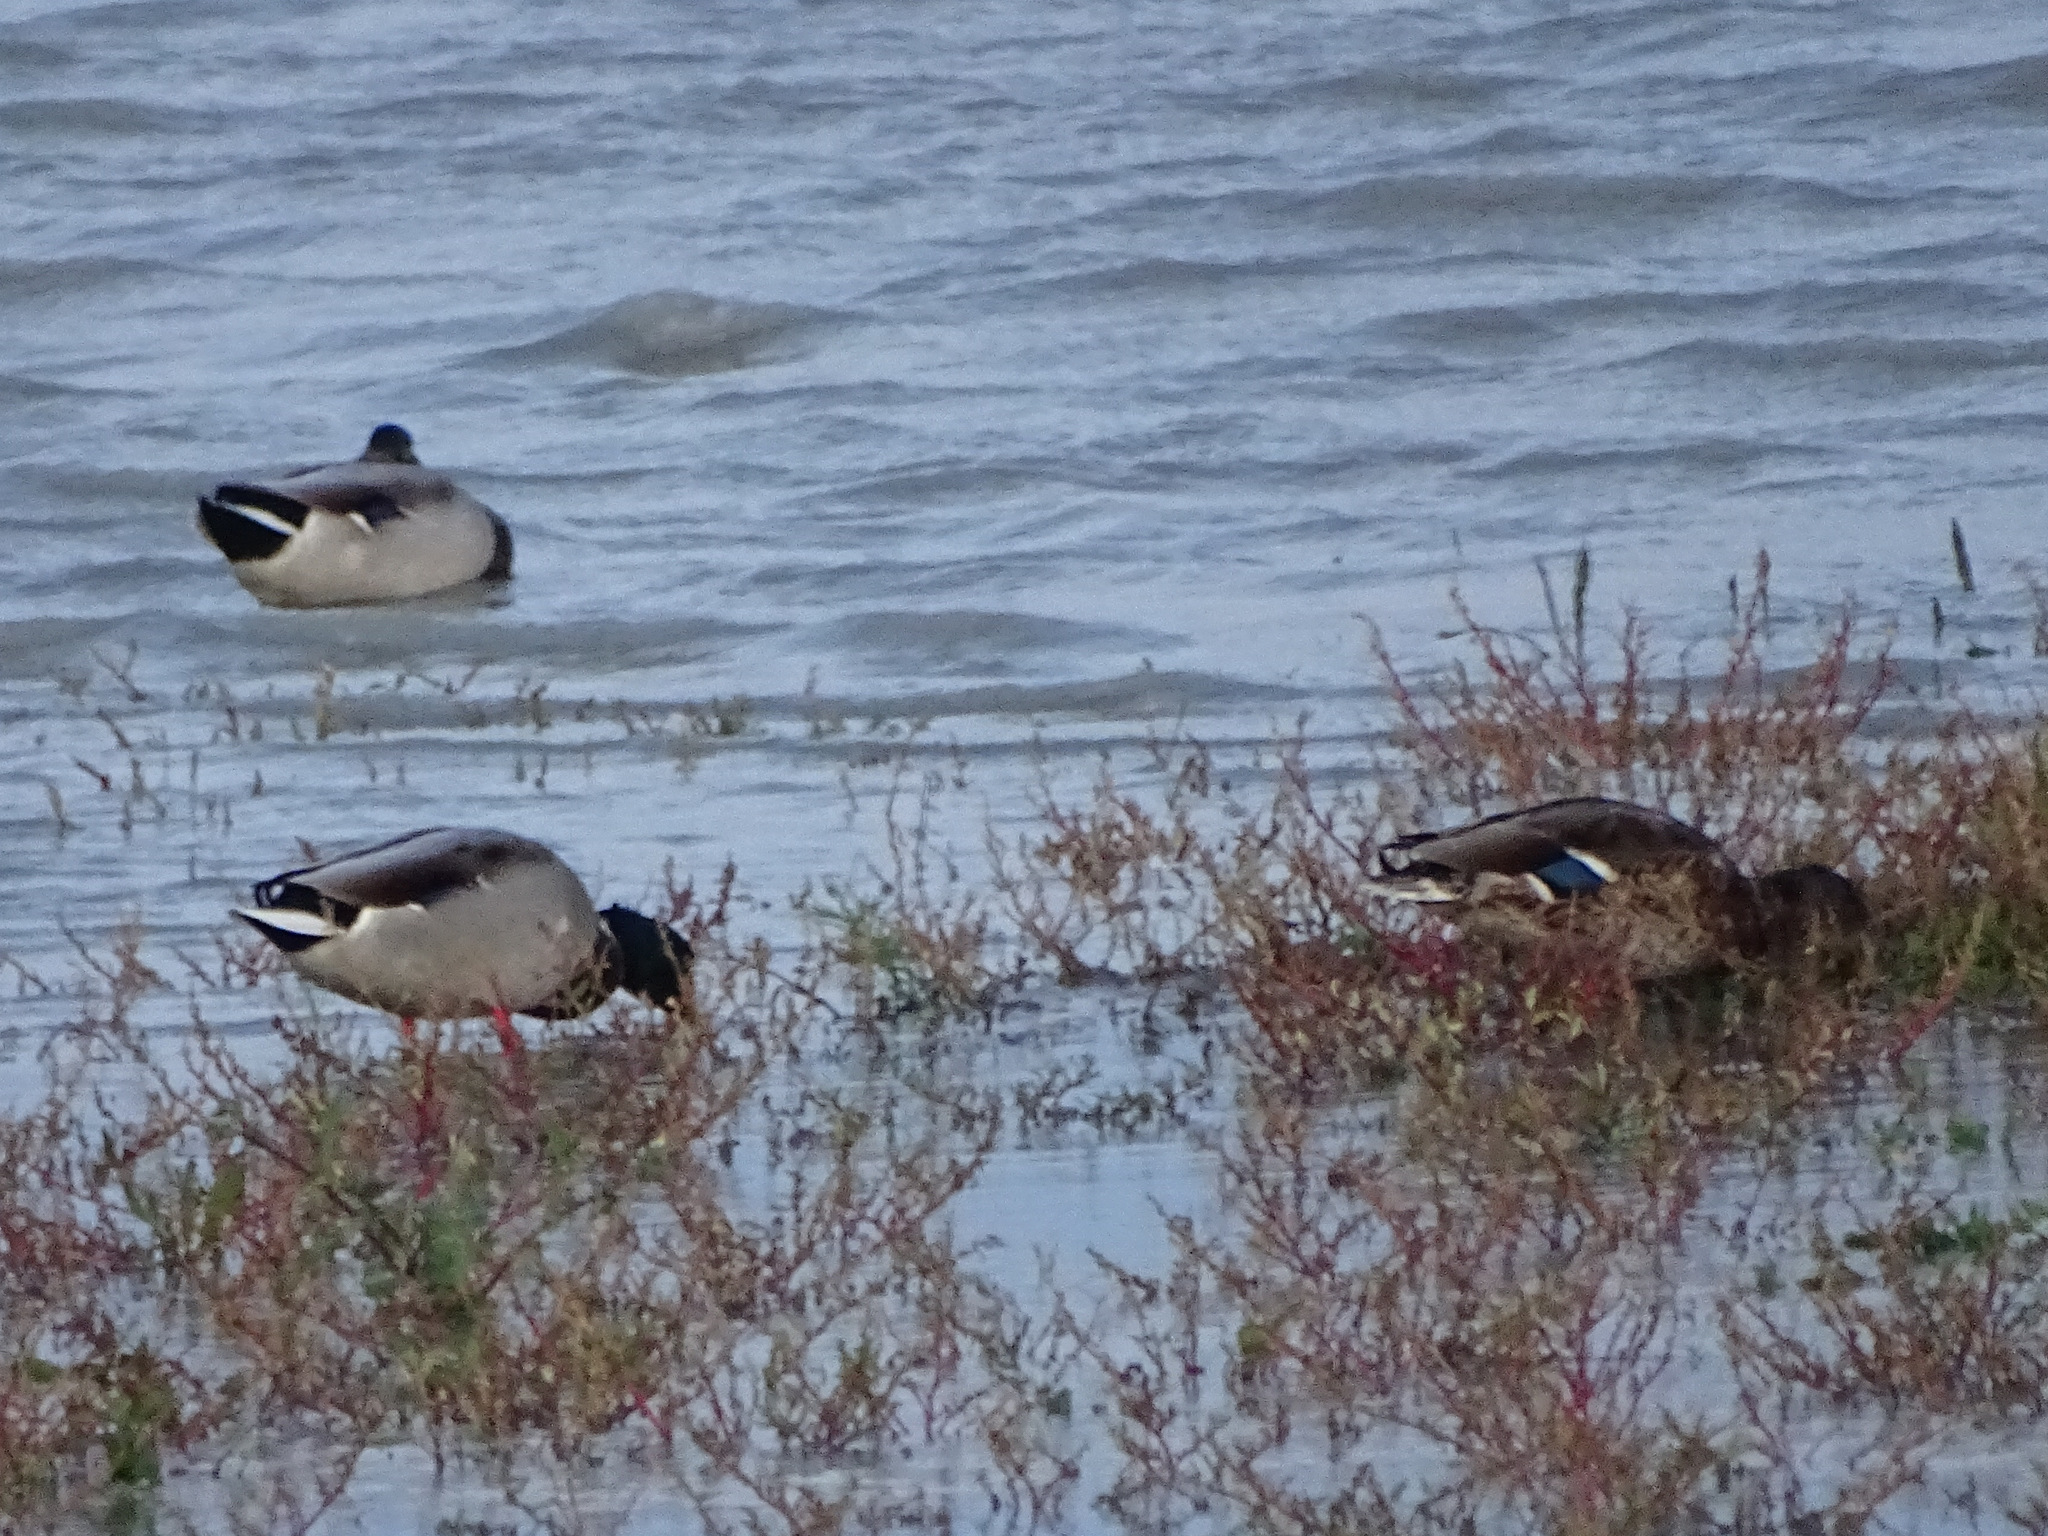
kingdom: Animalia
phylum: Chordata
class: Aves
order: Anseriformes
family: Anatidae
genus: Anas
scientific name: Anas platyrhynchos
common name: Mallard
